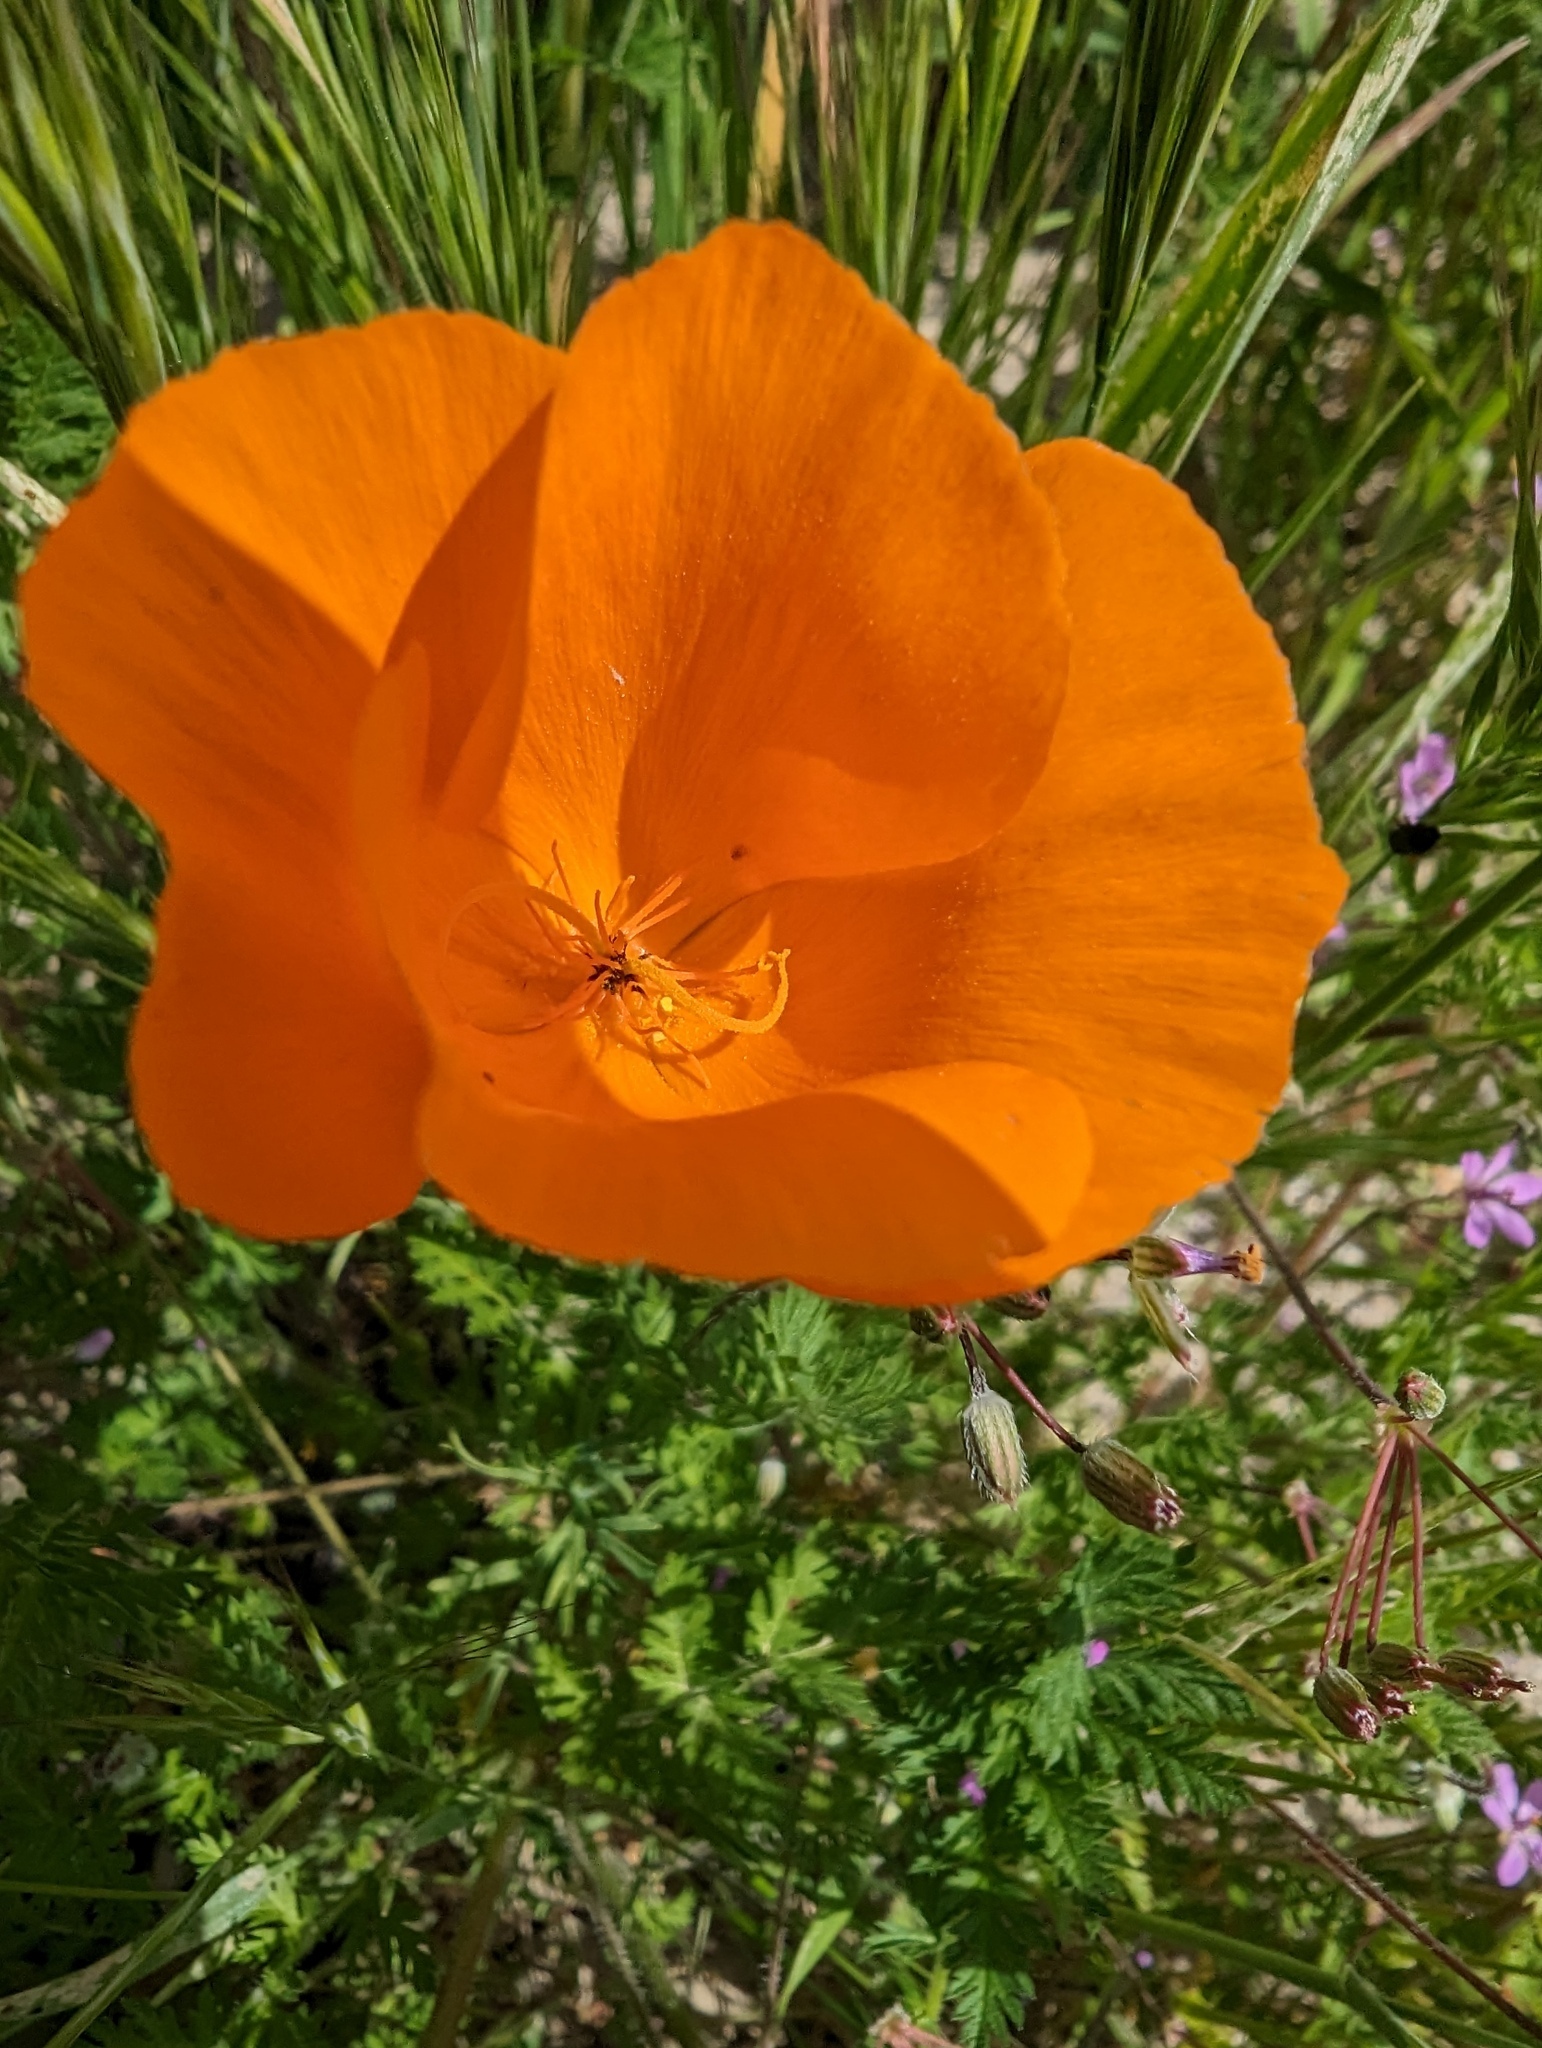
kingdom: Plantae
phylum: Tracheophyta
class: Magnoliopsida
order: Ranunculales
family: Papaveraceae
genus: Eschscholzia
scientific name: Eschscholzia lemmonii
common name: Lemmon's poppy
